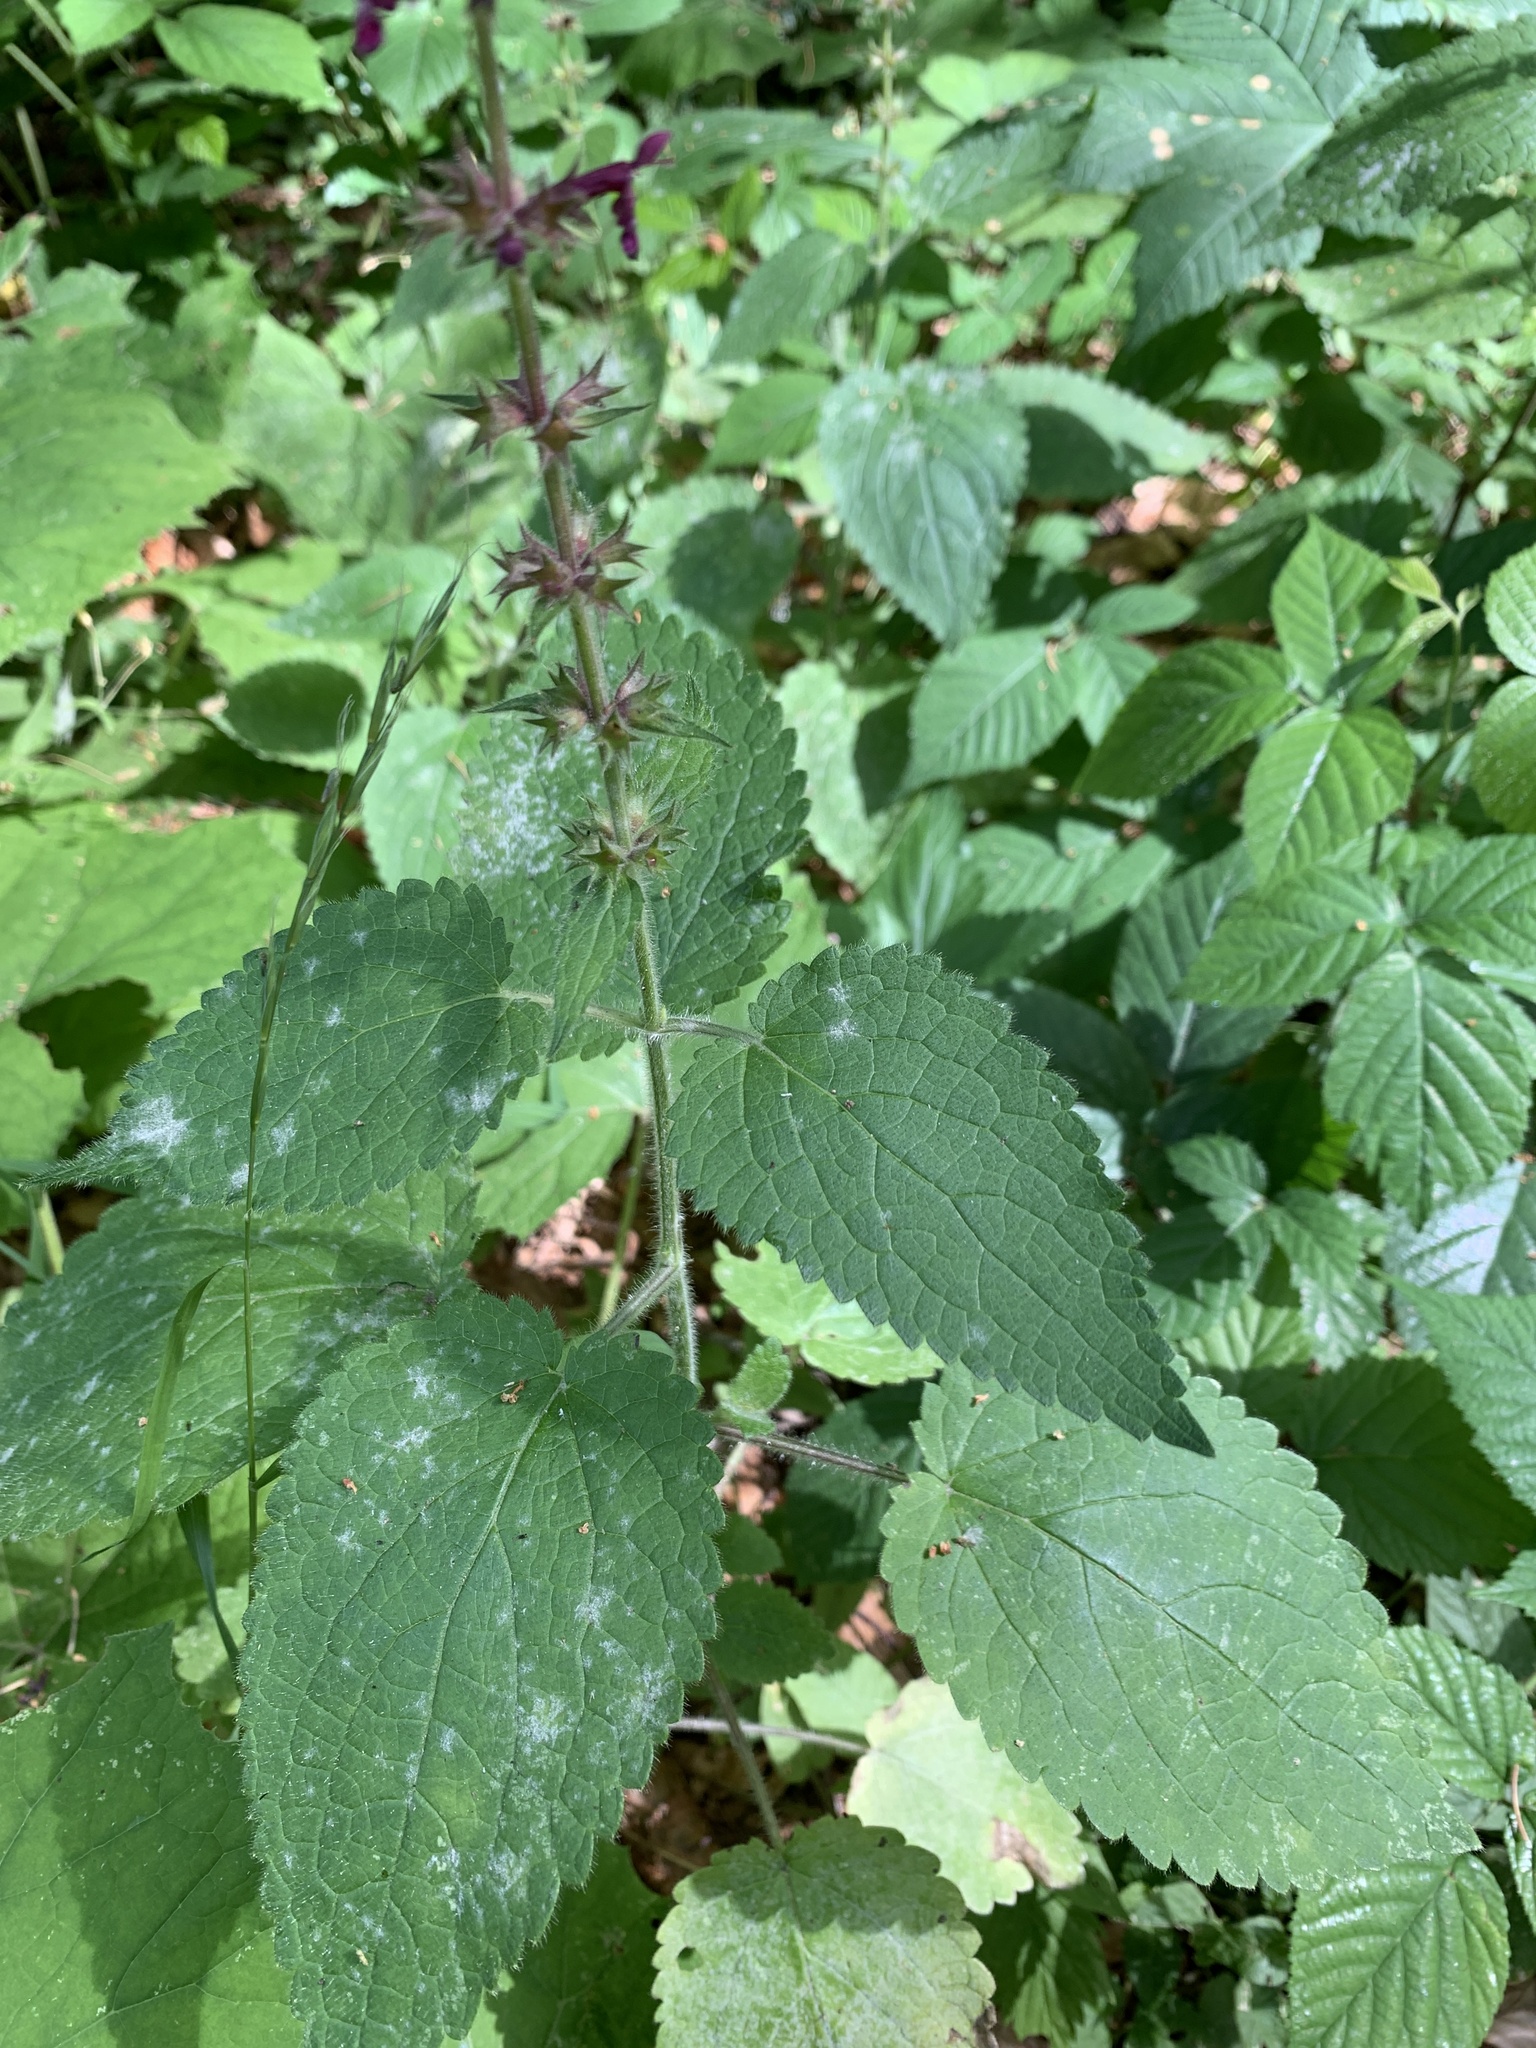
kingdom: Plantae
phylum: Tracheophyta
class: Magnoliopsida
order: Lamiales
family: Lamiaceae
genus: Stachys
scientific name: Stachys sylvatica
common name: Hedge woundwort
